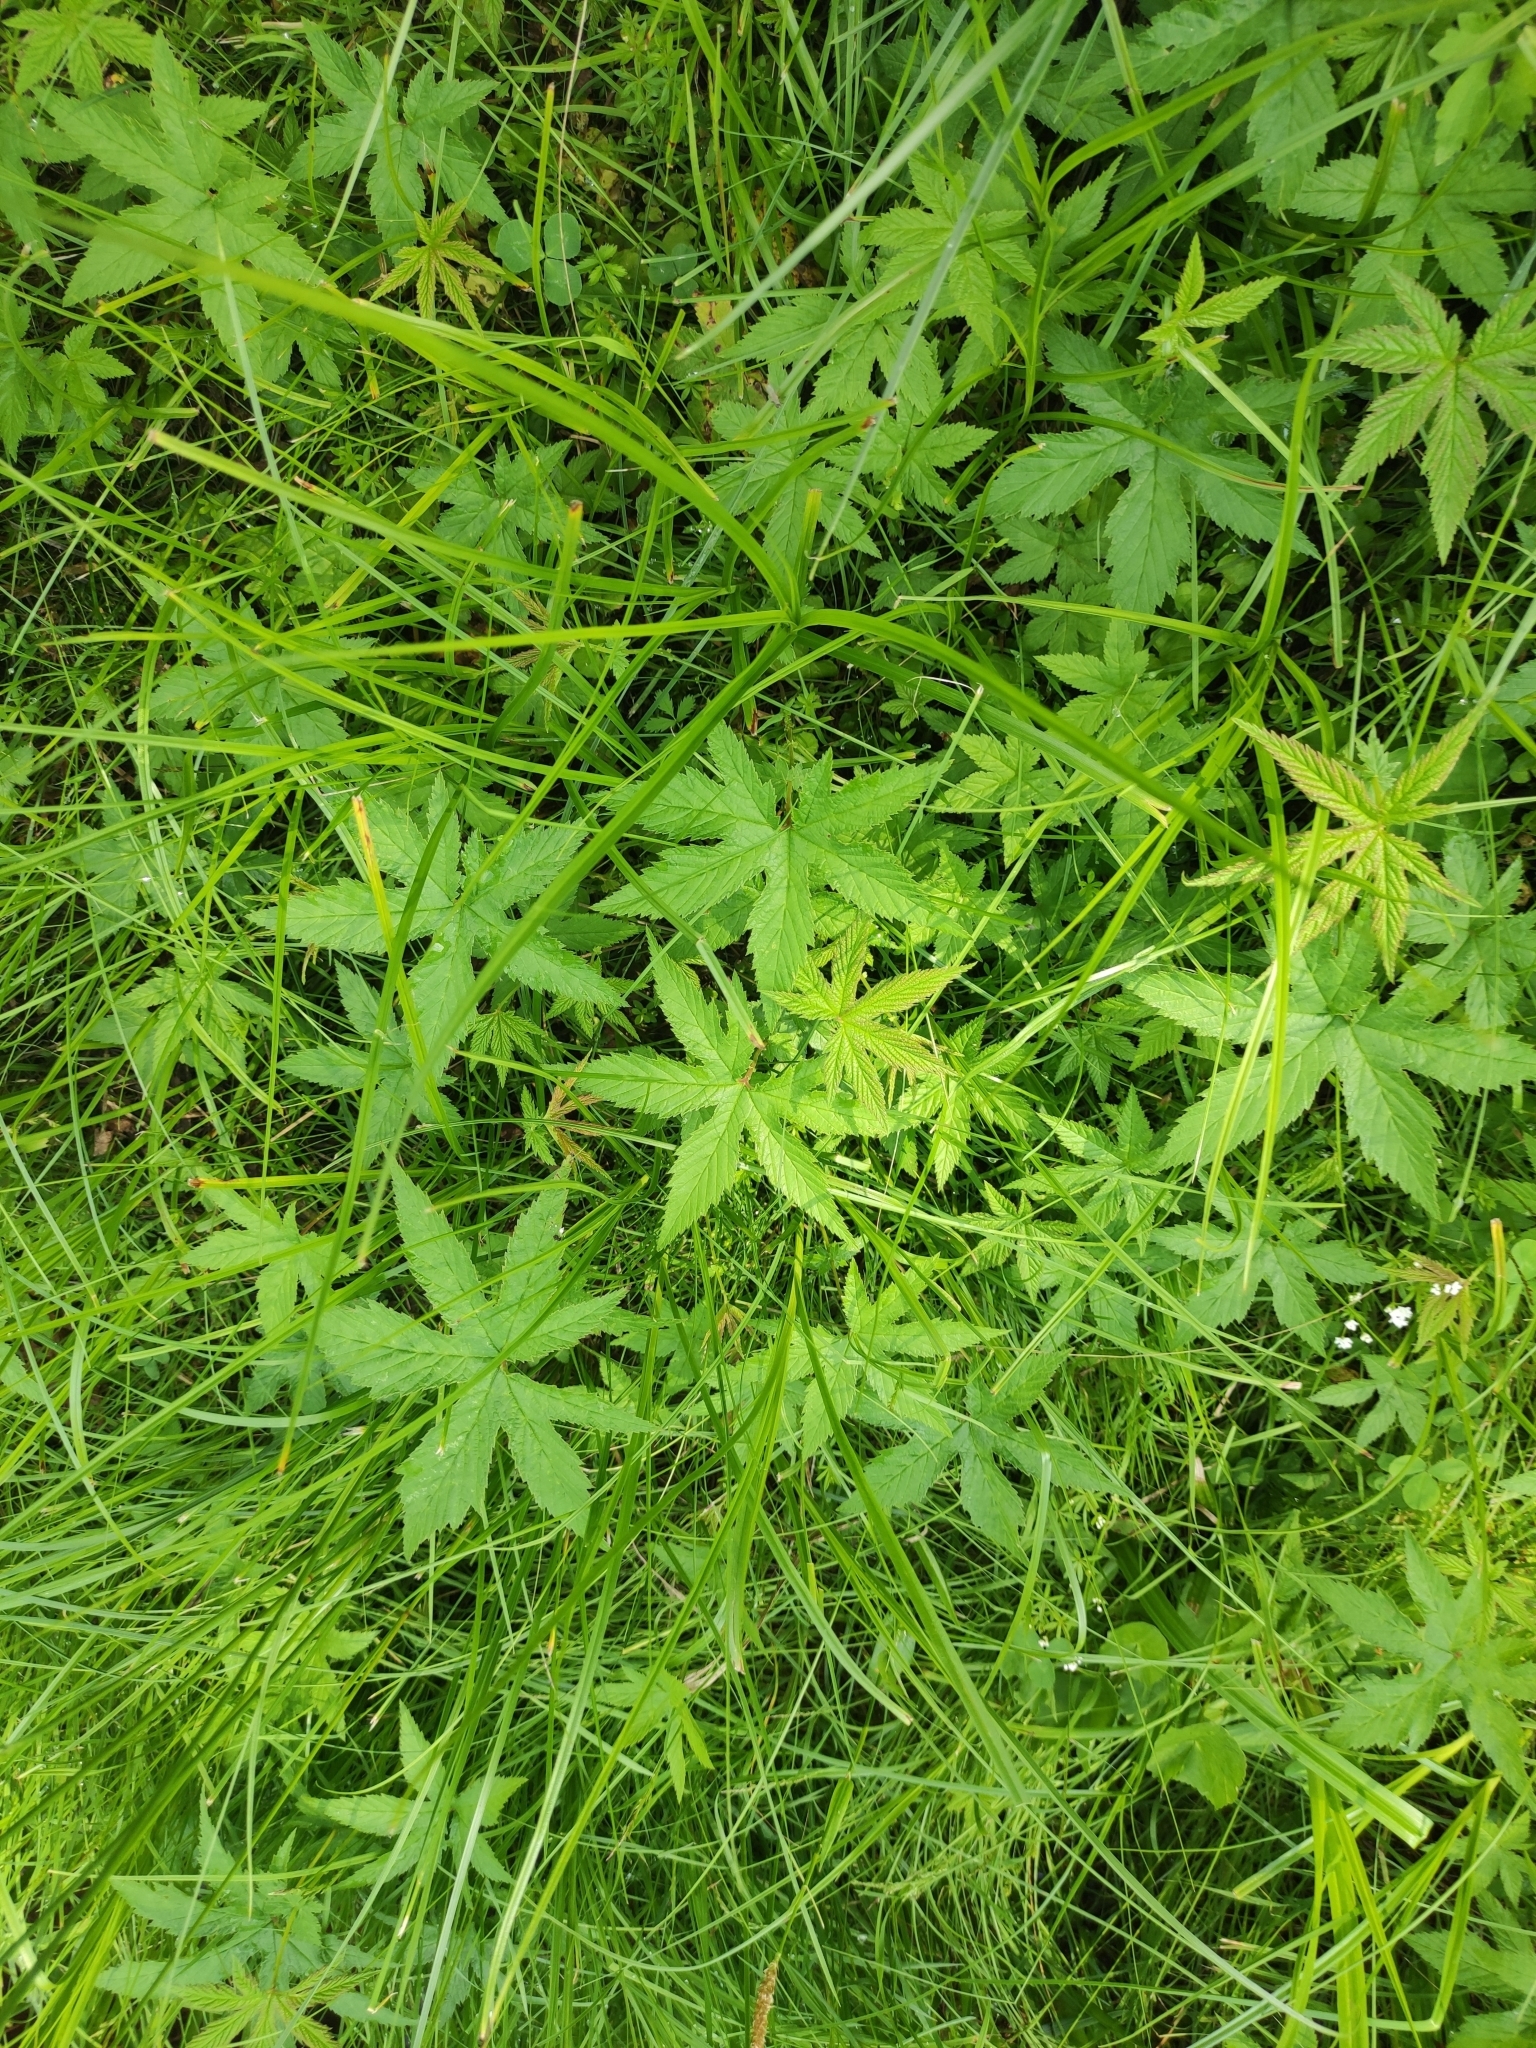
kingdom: Plantae
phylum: Tracheophyta
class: Magnoliopsida
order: Rosales
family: Rosaceae
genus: Filipendula
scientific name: Filipendula digitata
